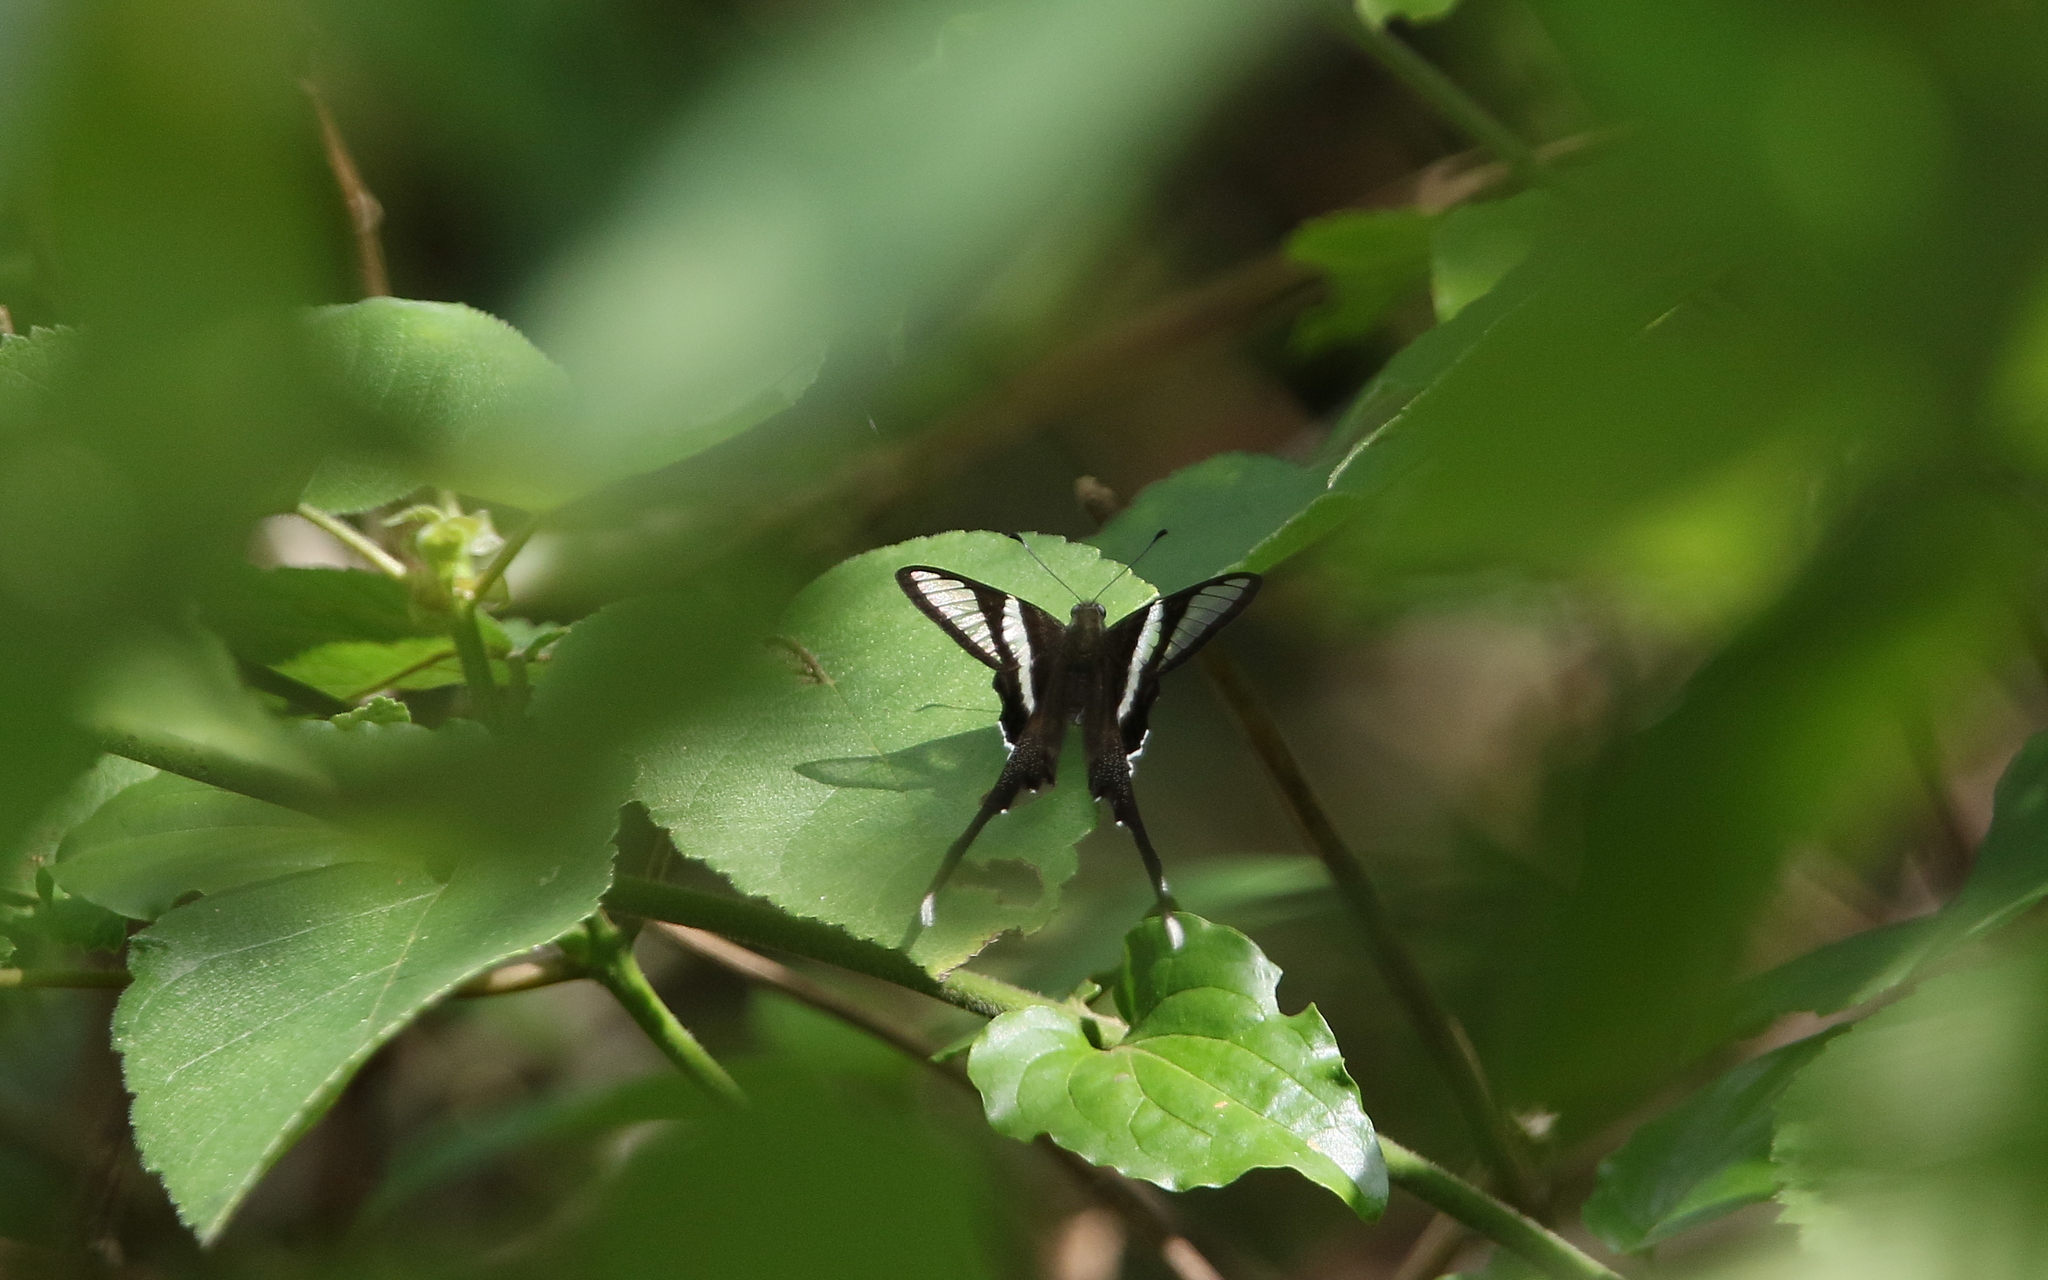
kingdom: Animalia
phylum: Arthropoda
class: Insecta
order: Lepidoptera
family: Papilionidae
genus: Lamproptera
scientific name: Lamproptera curius
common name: White dragontail
